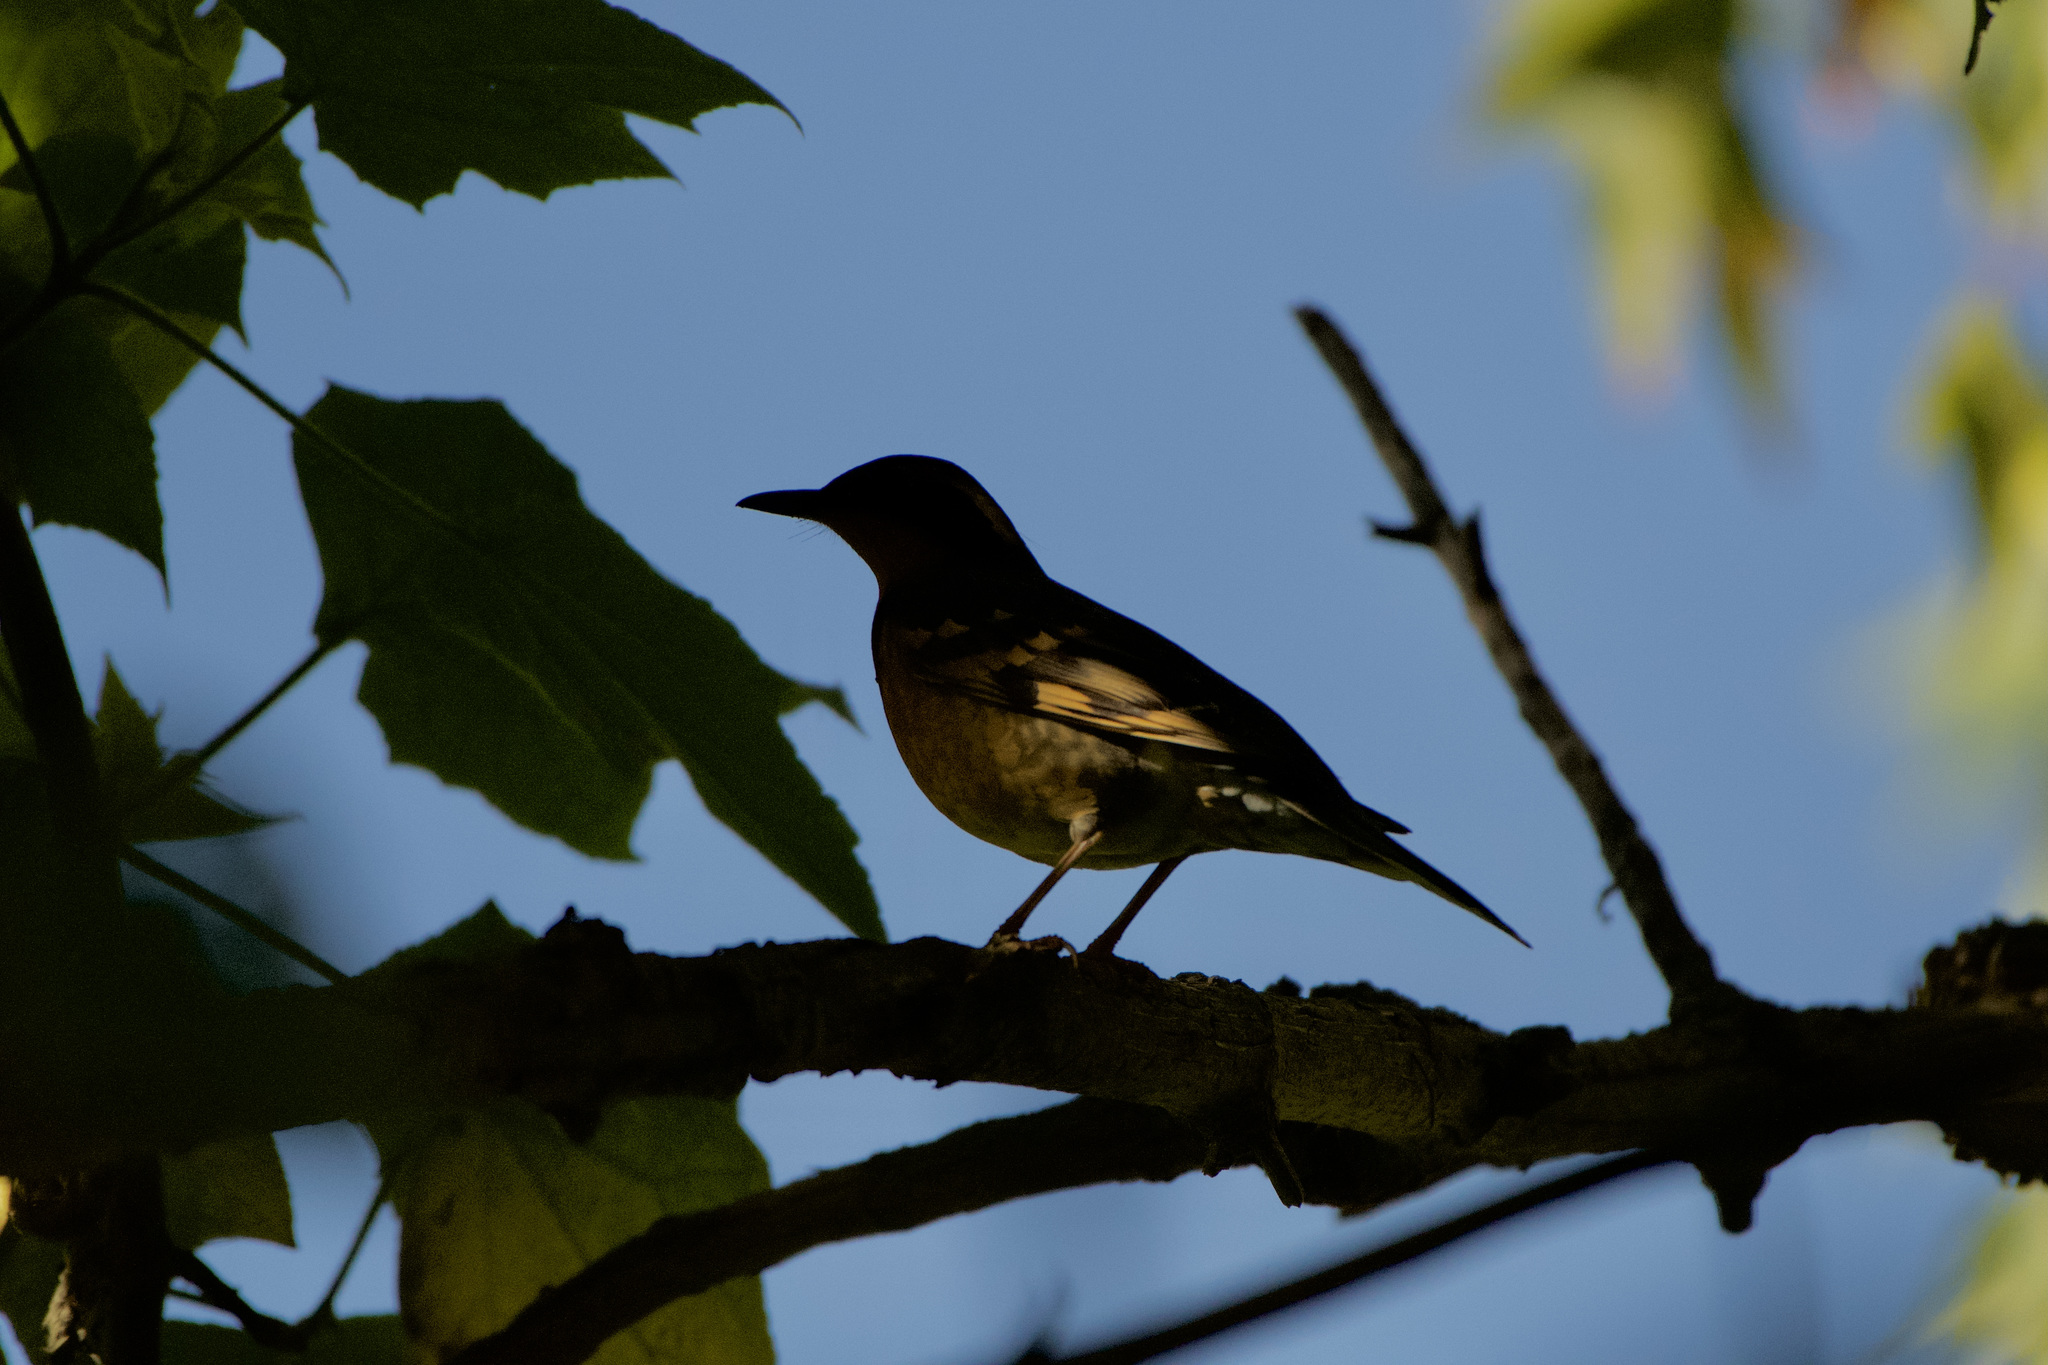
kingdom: Animalia
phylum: Chordata
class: Aves
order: Passeriformes
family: Turdidae
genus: Ixoreus
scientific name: Ixoreus naevius
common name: Varied thrush
